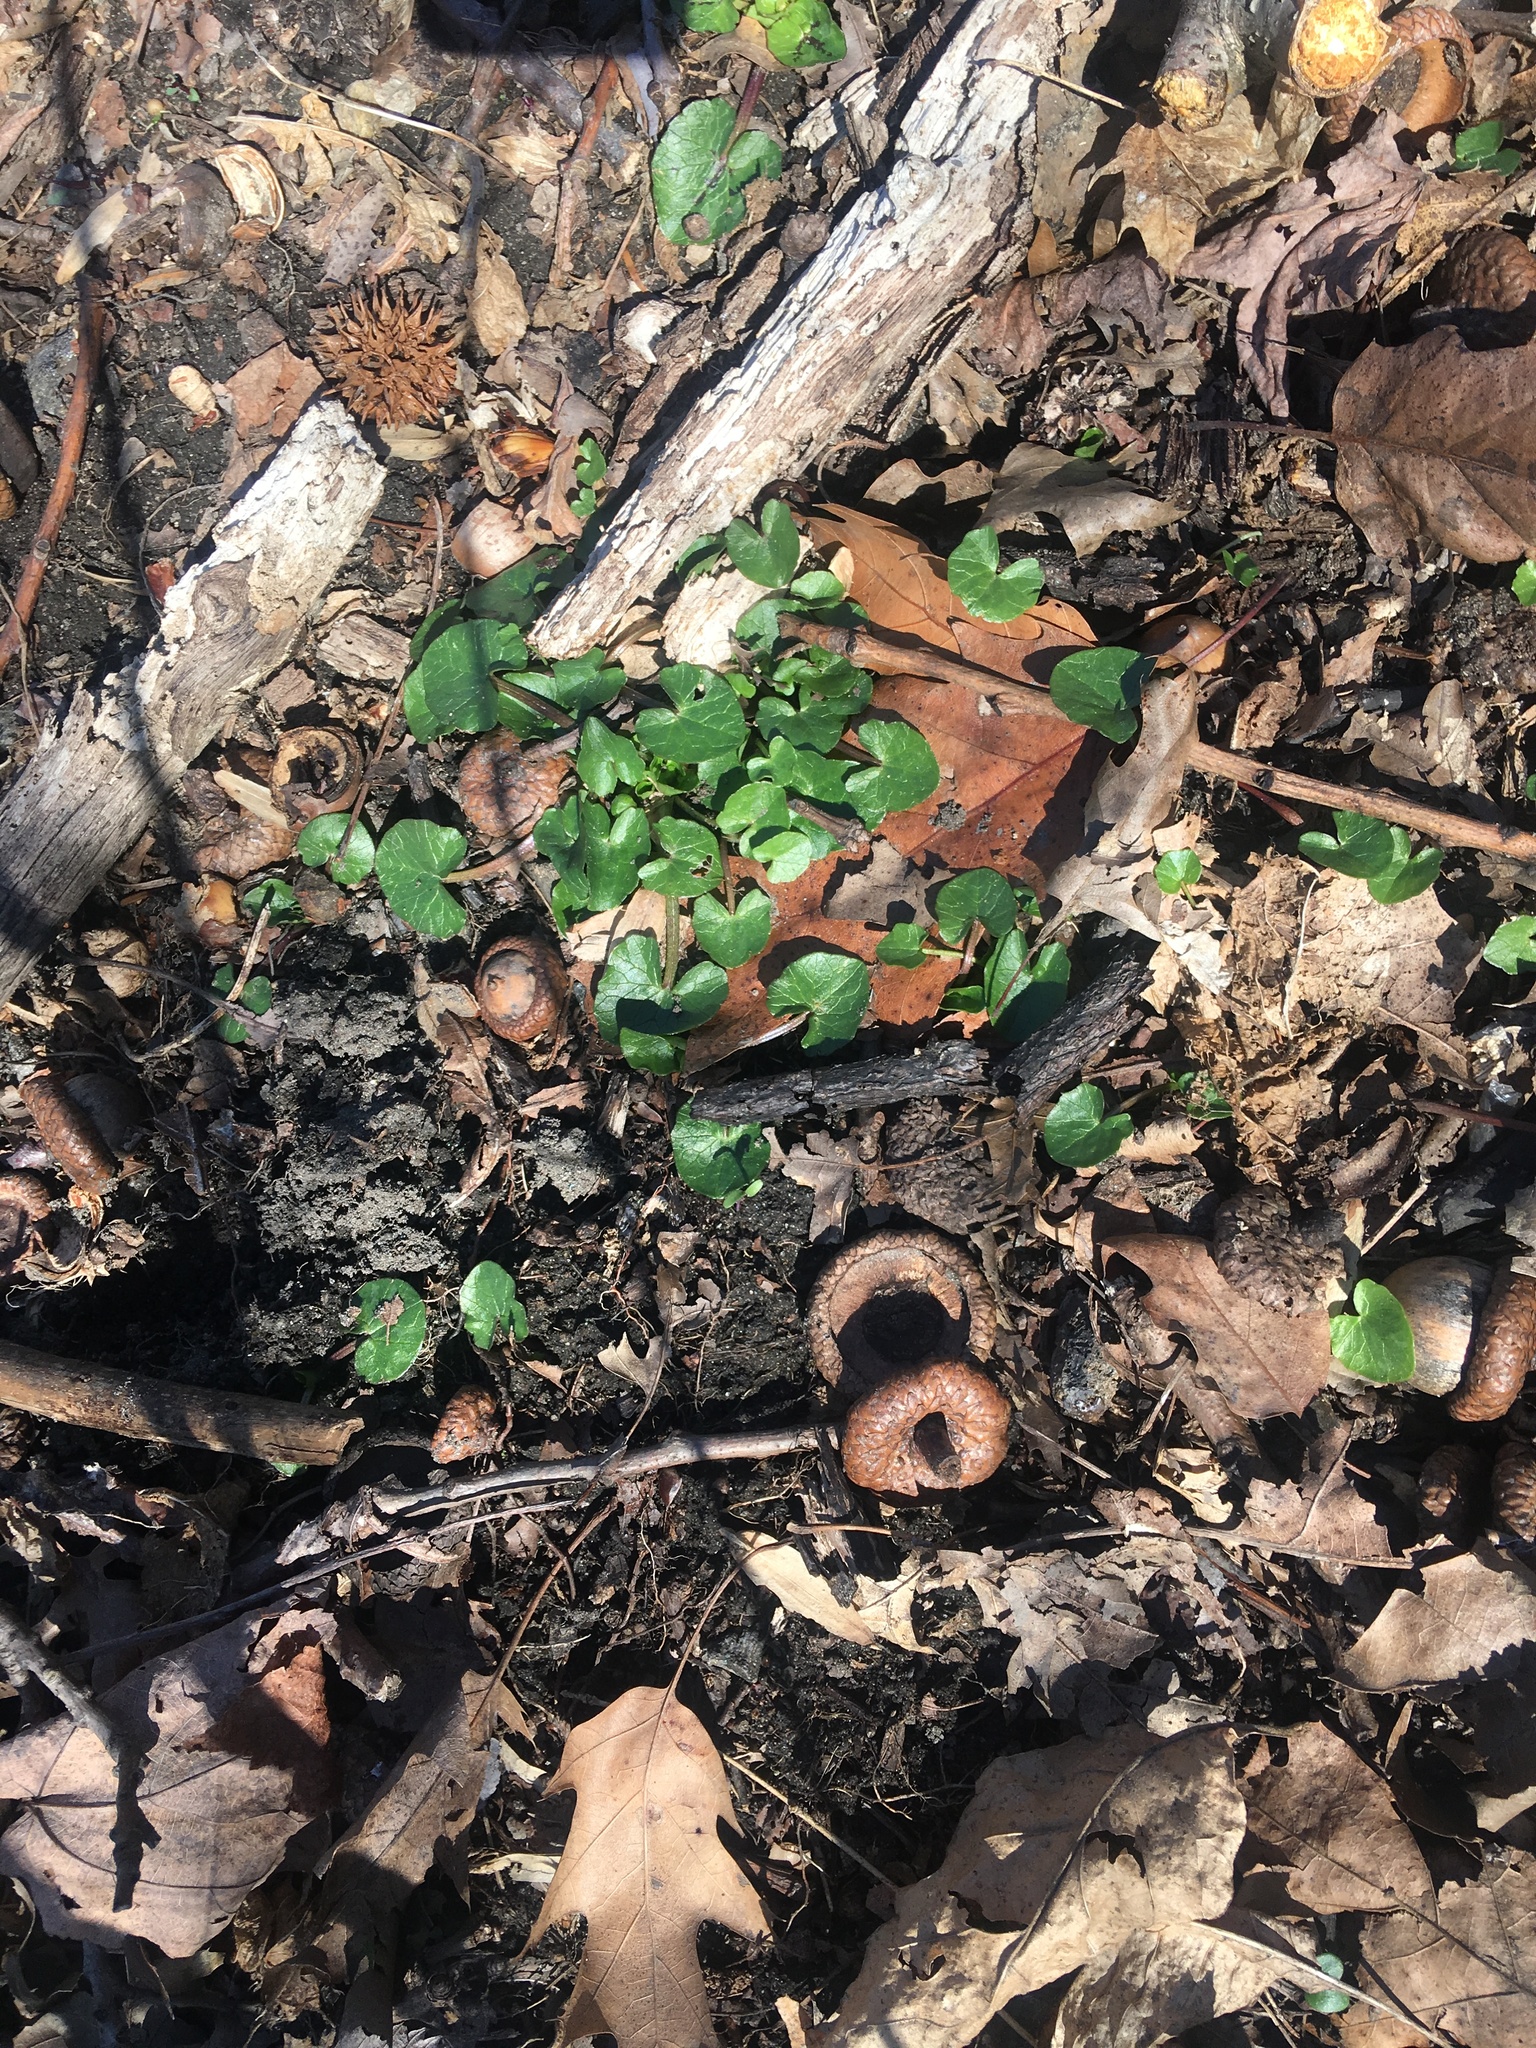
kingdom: Plantae
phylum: Tracheophyta
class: Magnoliopsida
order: Ranunculales
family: Ranunculaceae
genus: Ficaria
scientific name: Ficaria verna
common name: Lesser celandine
